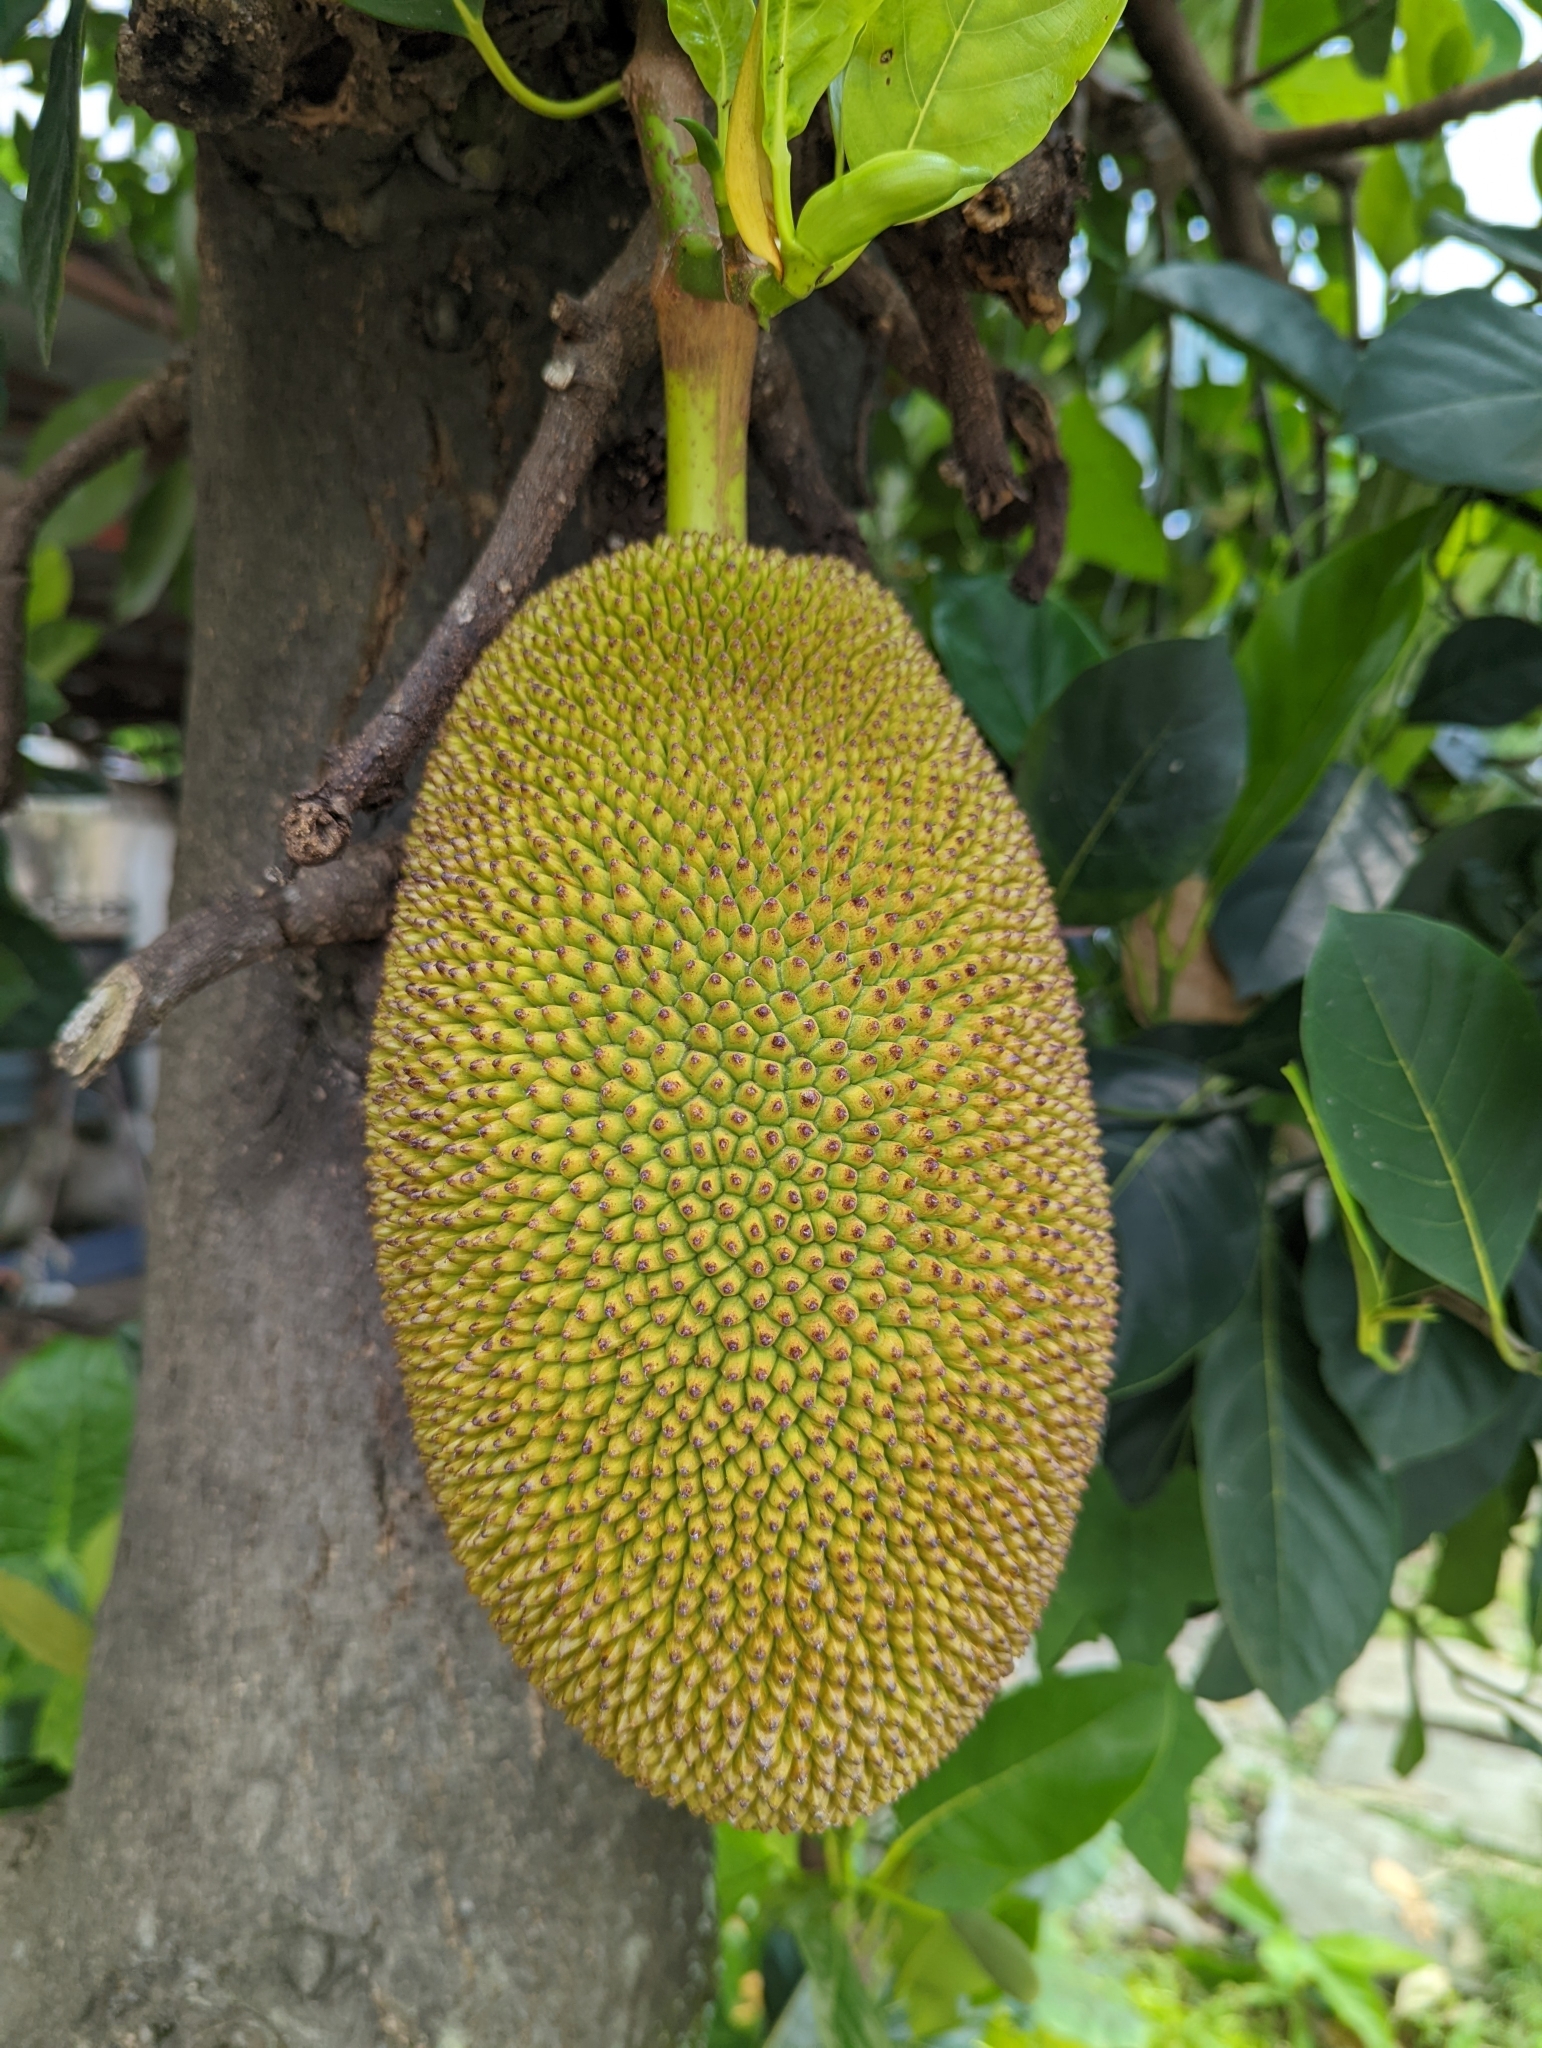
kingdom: Plantae
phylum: Tracheophyta
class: Magnoliopsida
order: Rosales
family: Moraceae
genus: Artocarpus
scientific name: Artocarpus heterophyllus
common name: Jackfruit
